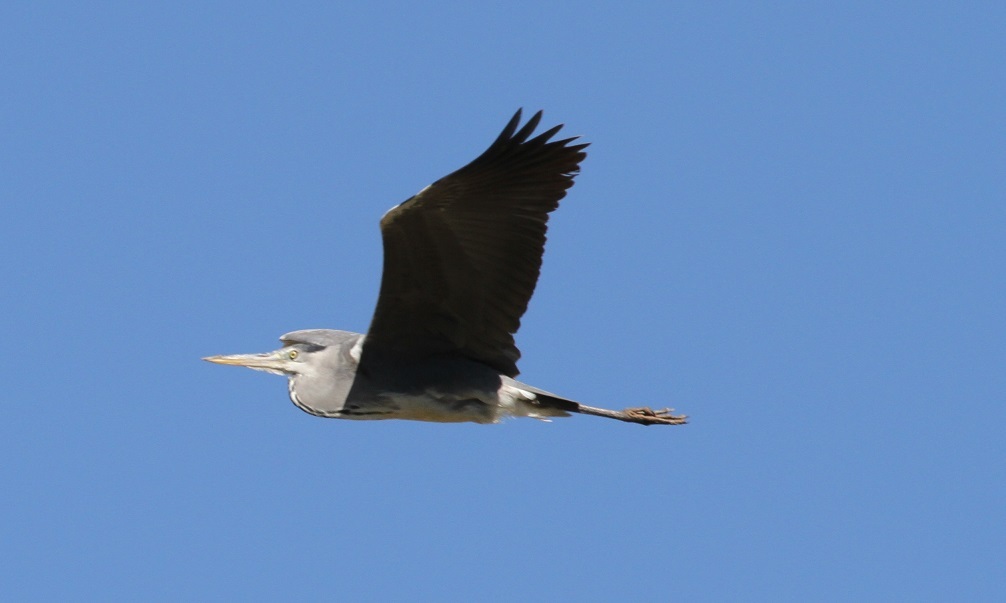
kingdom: Animalia
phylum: Chordata
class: Aves
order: Pelecaniformes
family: Ardeidae
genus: Ardea
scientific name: Ardea cinerea
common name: Grey heron
